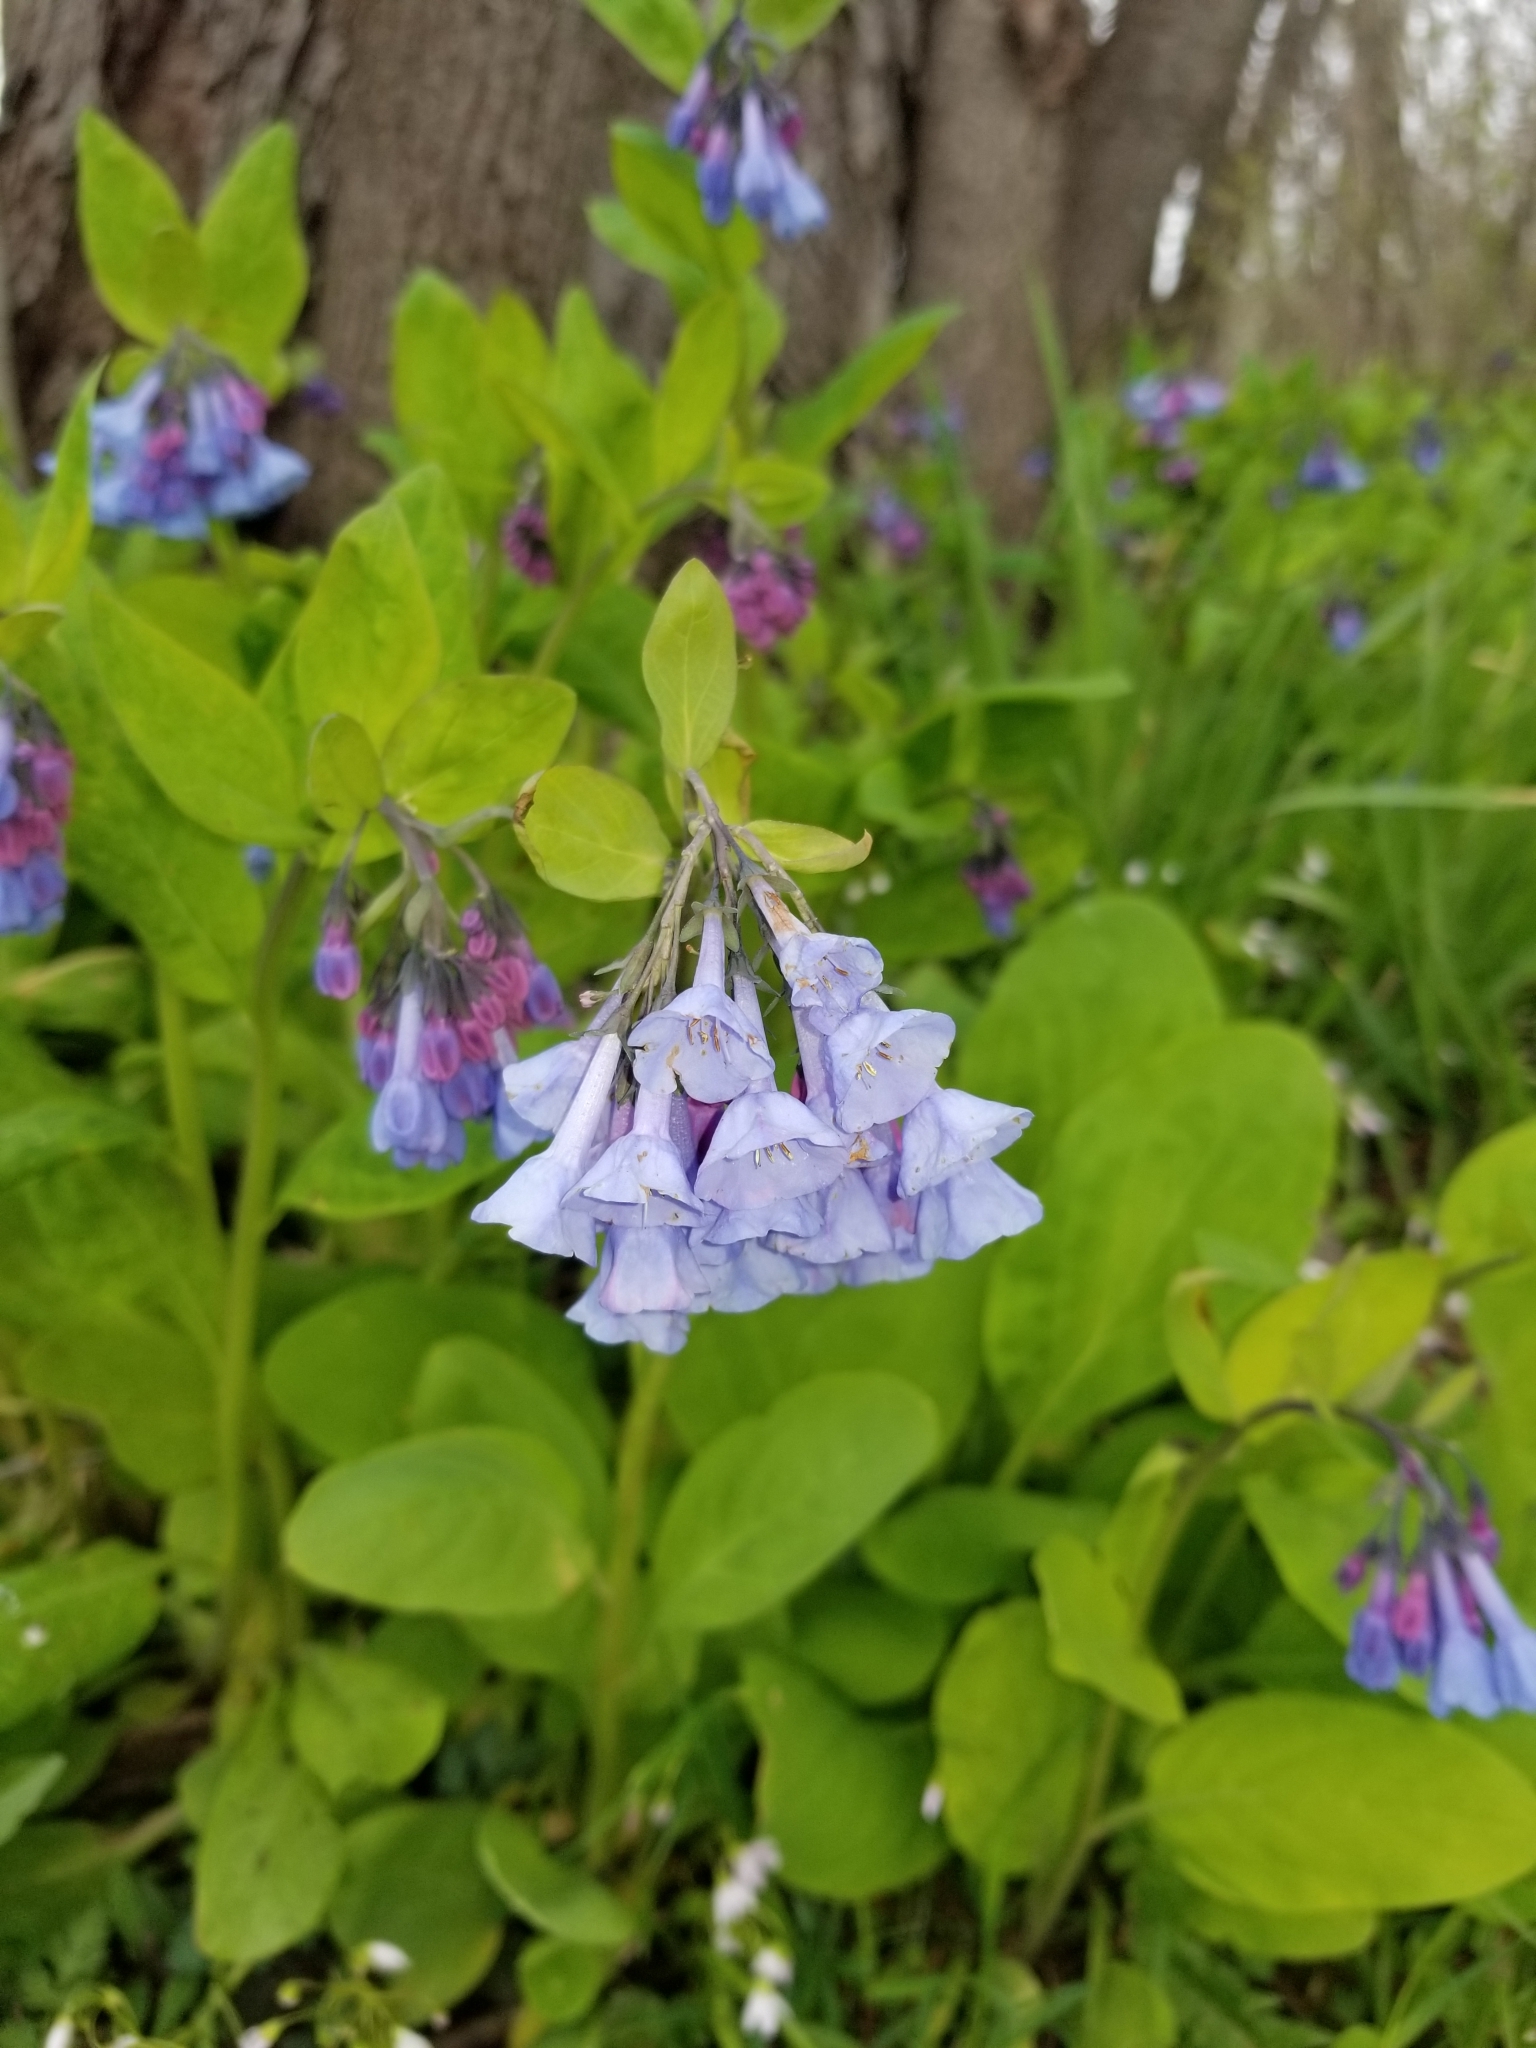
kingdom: Plantae
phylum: Tracheophyta
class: Magnoliopsida
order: Boraginales
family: Boraginaceae
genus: Mertensia
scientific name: Mertensia virginica
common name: Virginia bluebells
